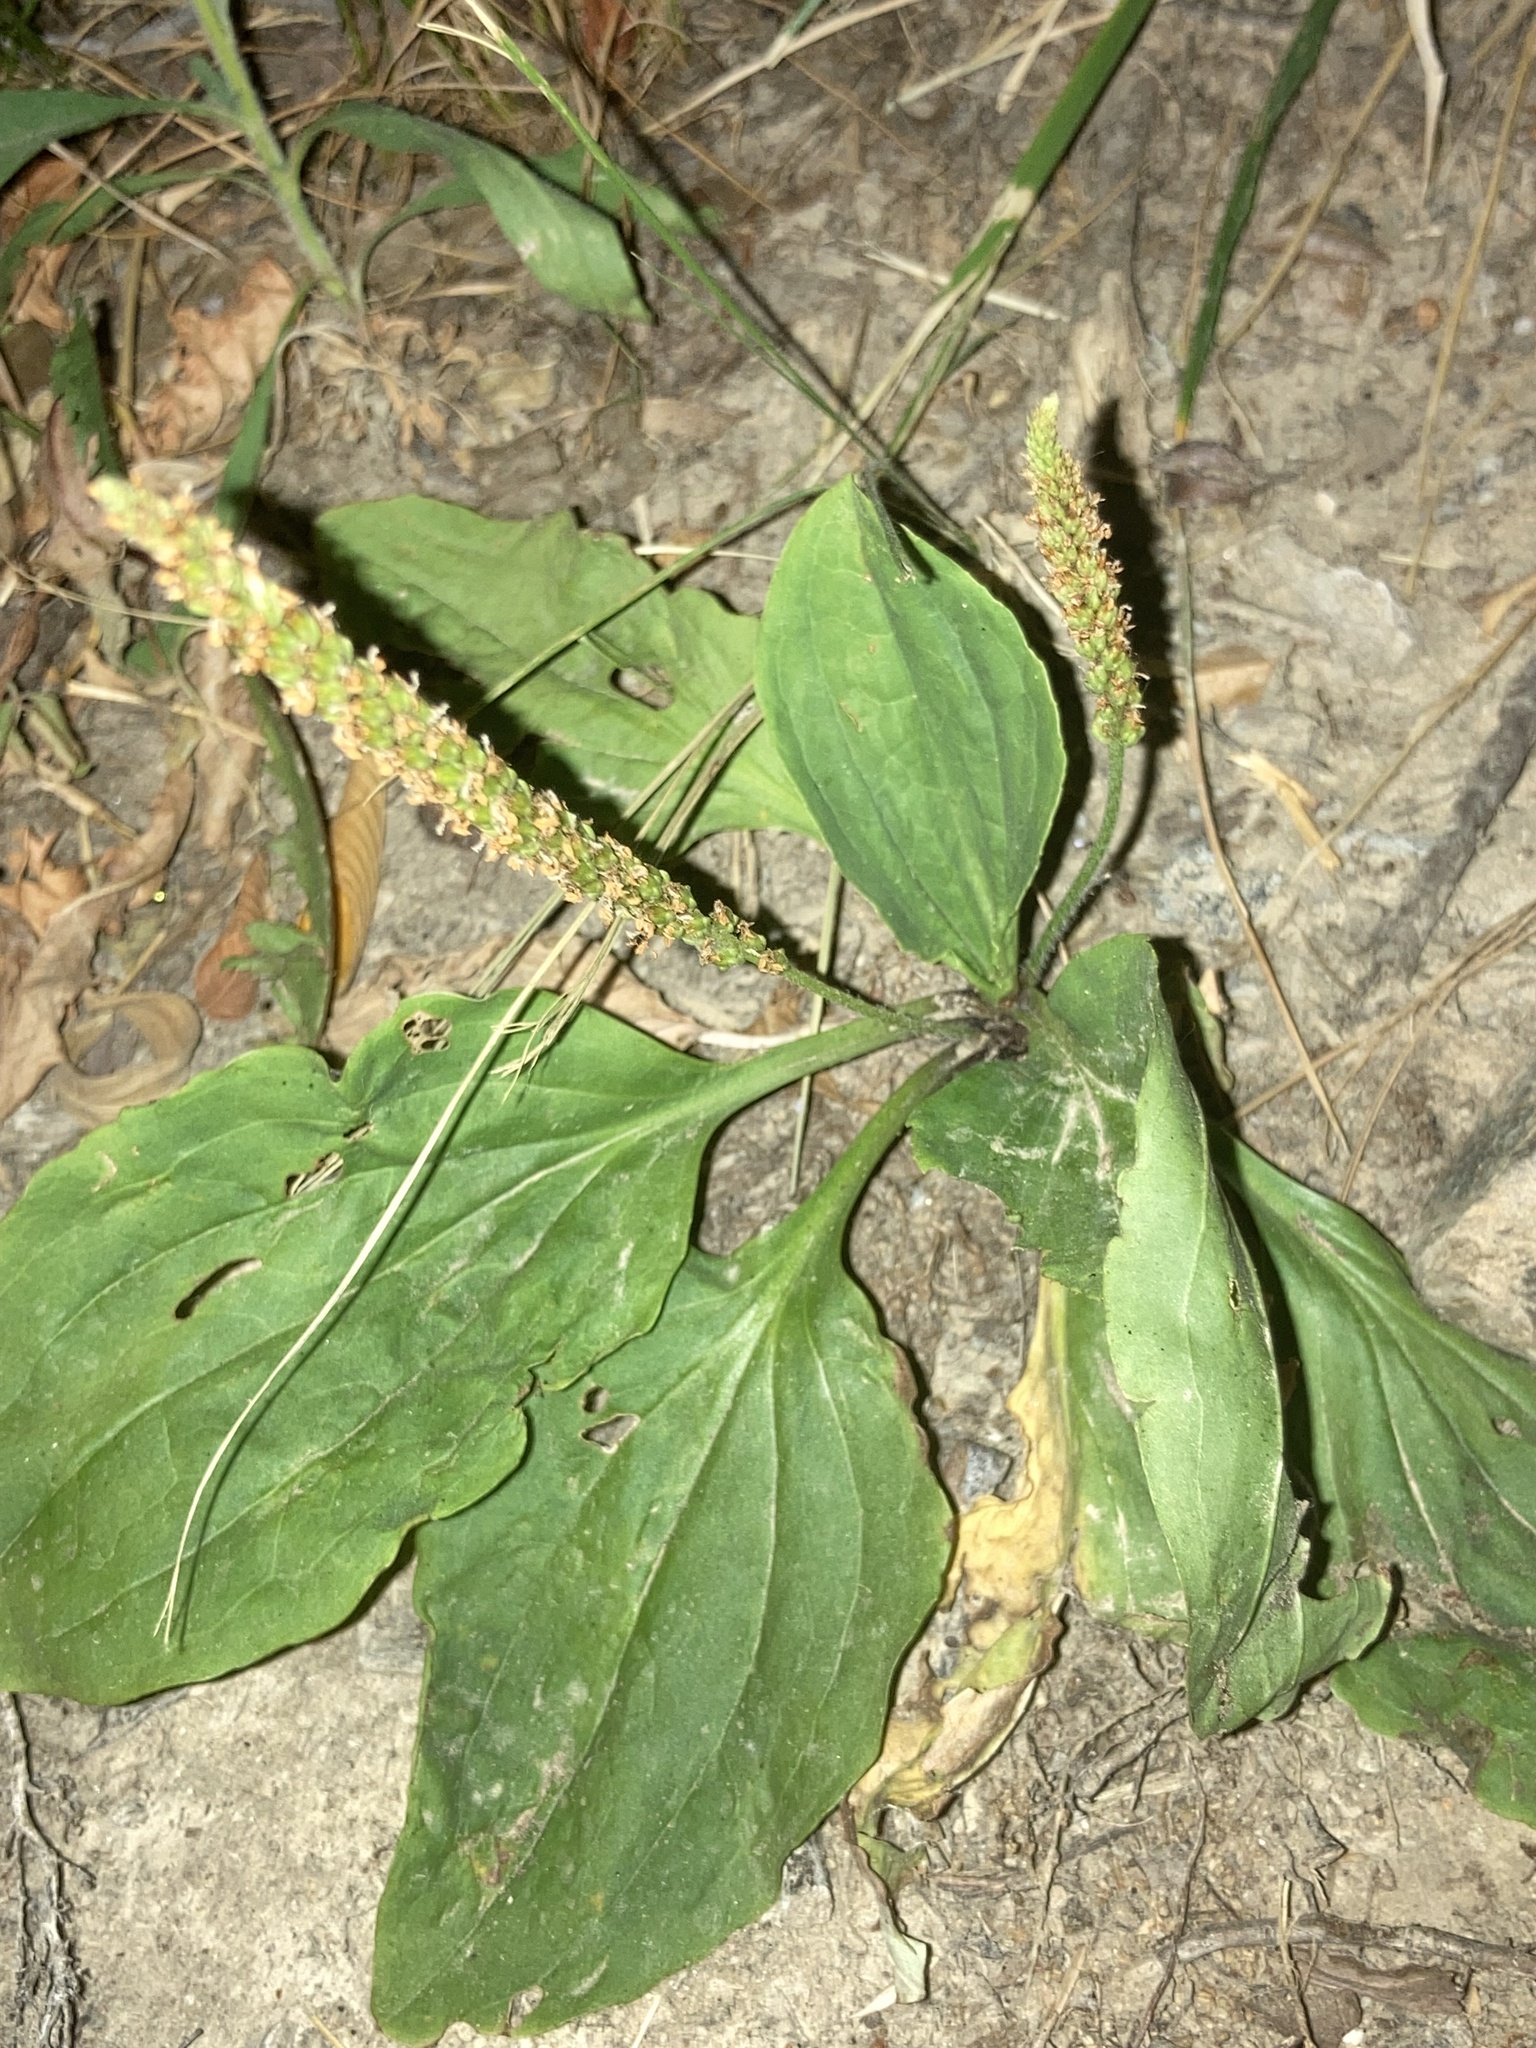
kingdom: Plantae
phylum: Tracheophyta
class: Magnoliopsida
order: Lamiales
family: Plantaginaceae
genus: Plantago
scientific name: Plantago rugelii
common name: American plantain
